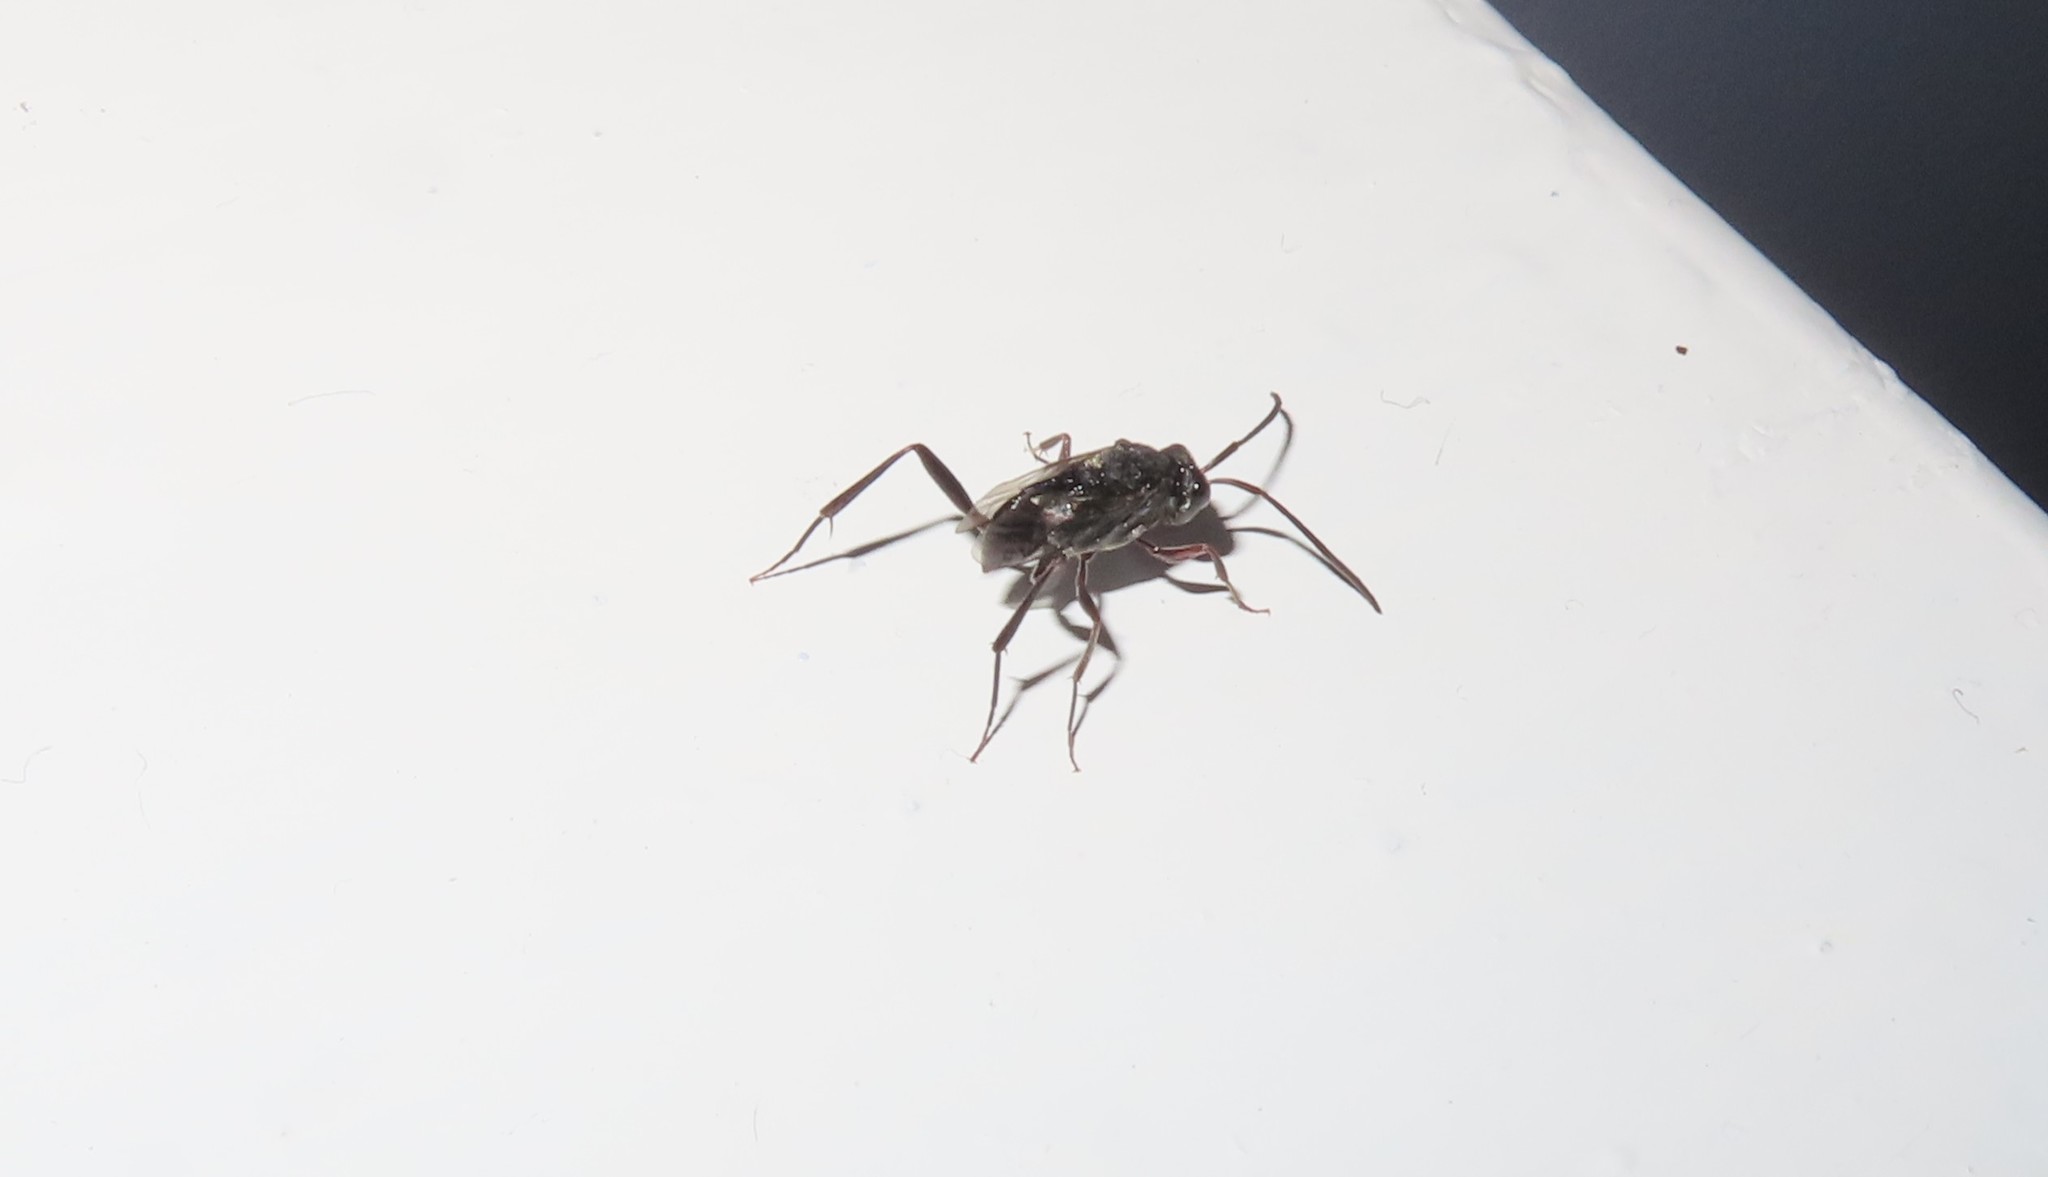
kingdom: Animalia
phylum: Arthropoda
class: Insecta
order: Hymenoptera
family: Evaniidae
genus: Prosevania
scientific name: Prosevania fuscipes
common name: Ensign wasp
